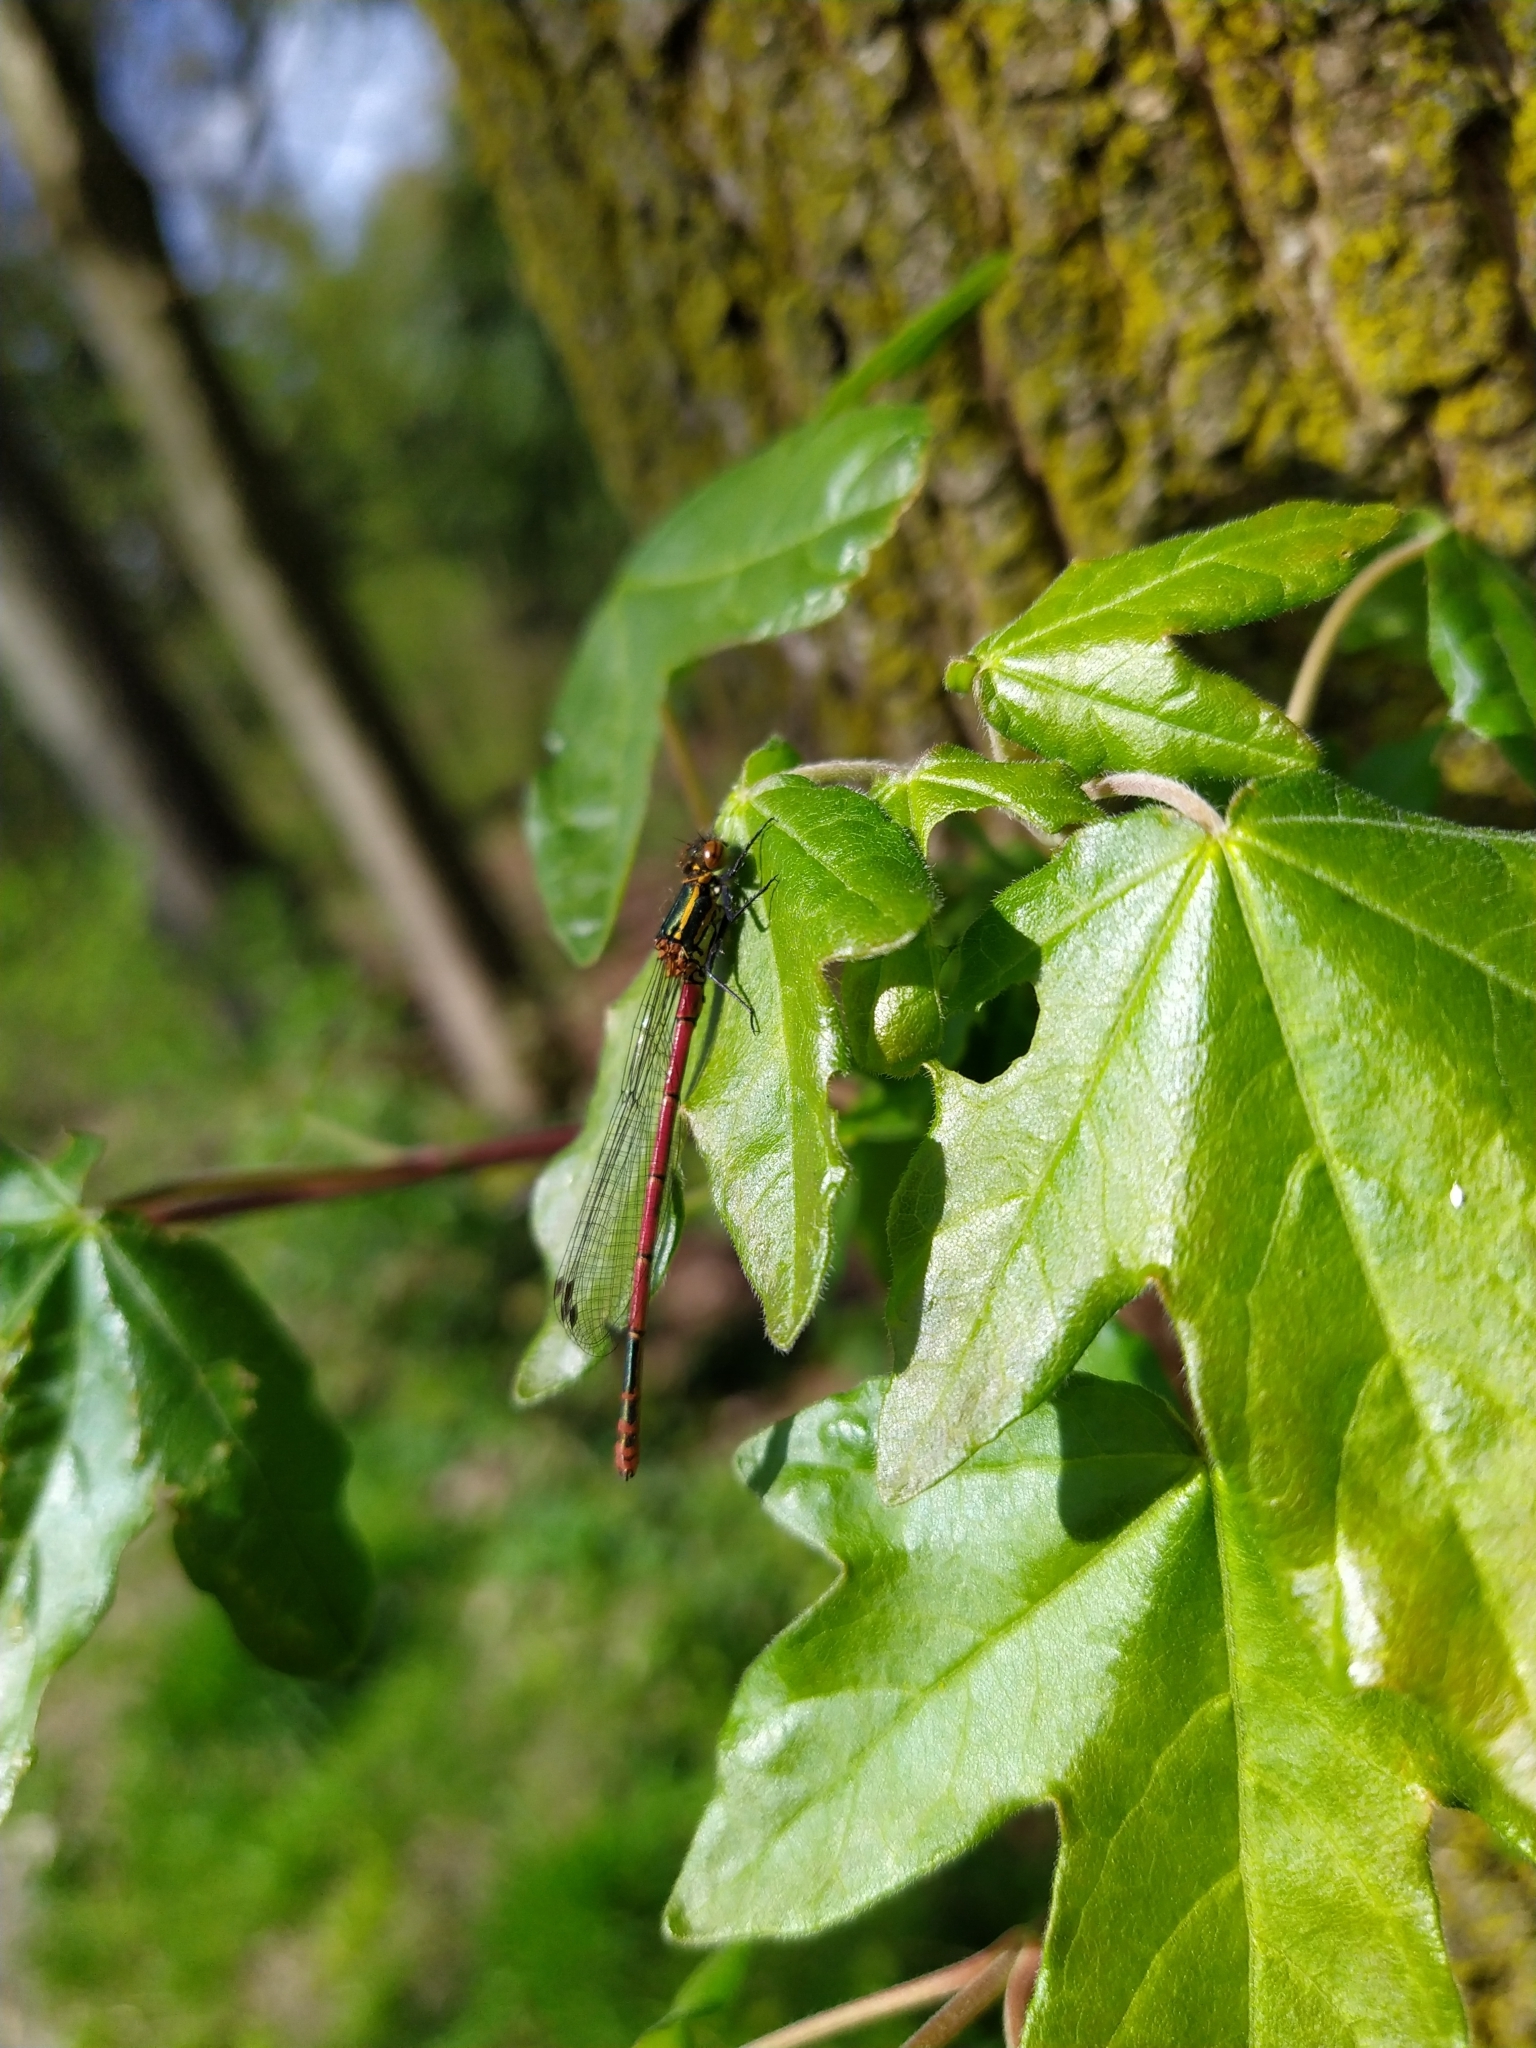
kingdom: Animalia
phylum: Arthropoda
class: Insecta
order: Odonata
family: Coenagrionidae
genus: Pyrrhosoma
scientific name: Pyrrhosoma nymphula
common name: Large red damsel
